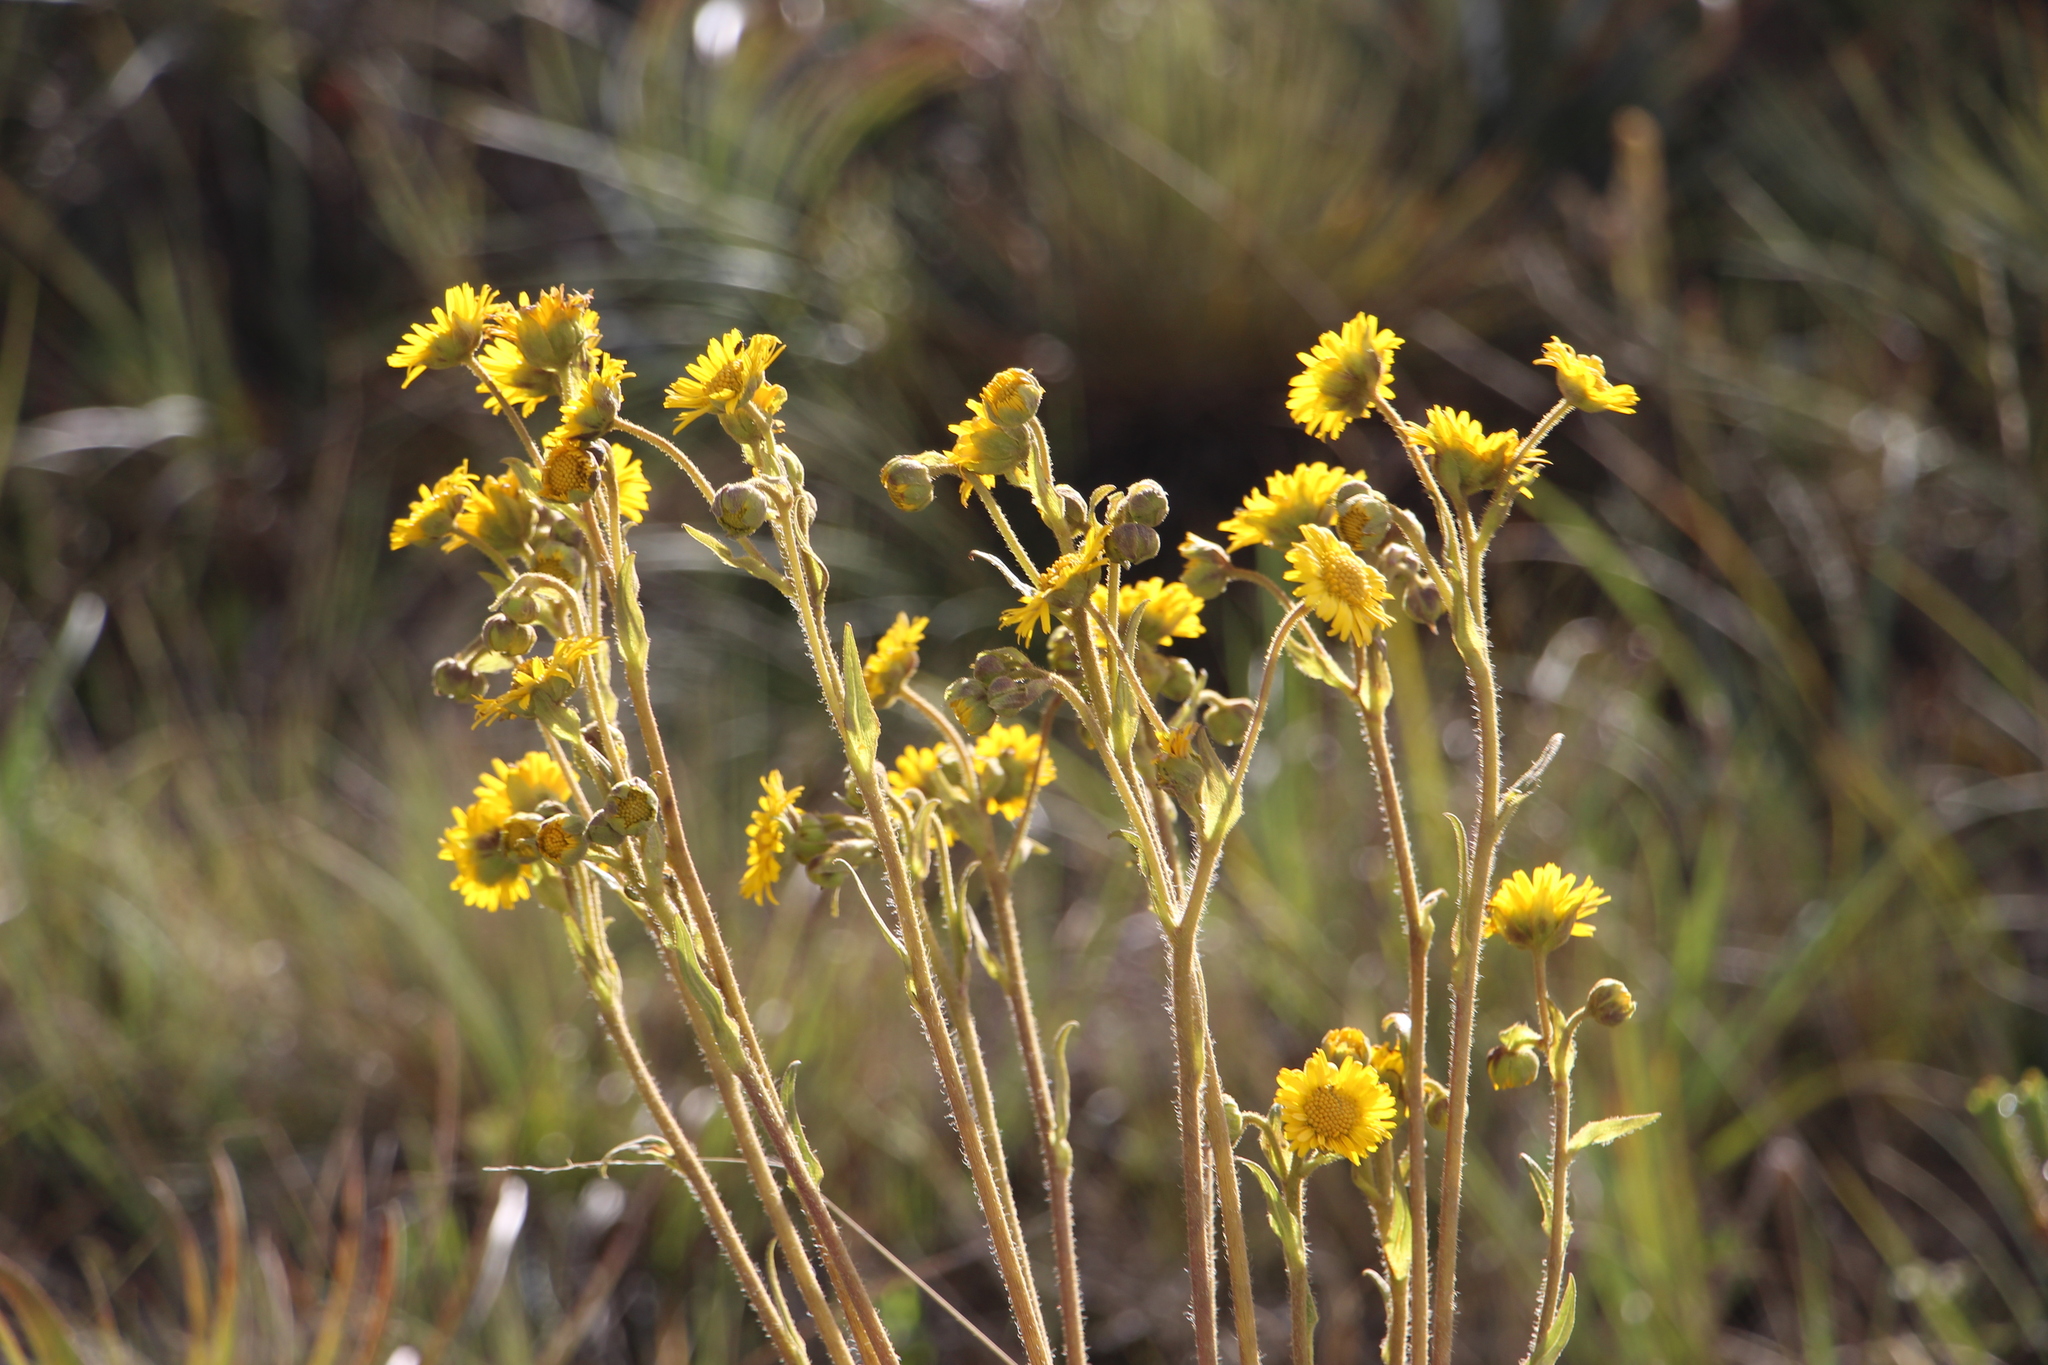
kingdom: Plantae
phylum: Tracheophyta
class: Magnoliopsida
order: Asterales
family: Asteraceae
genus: Espeletia
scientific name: Espeletia glandulosa
